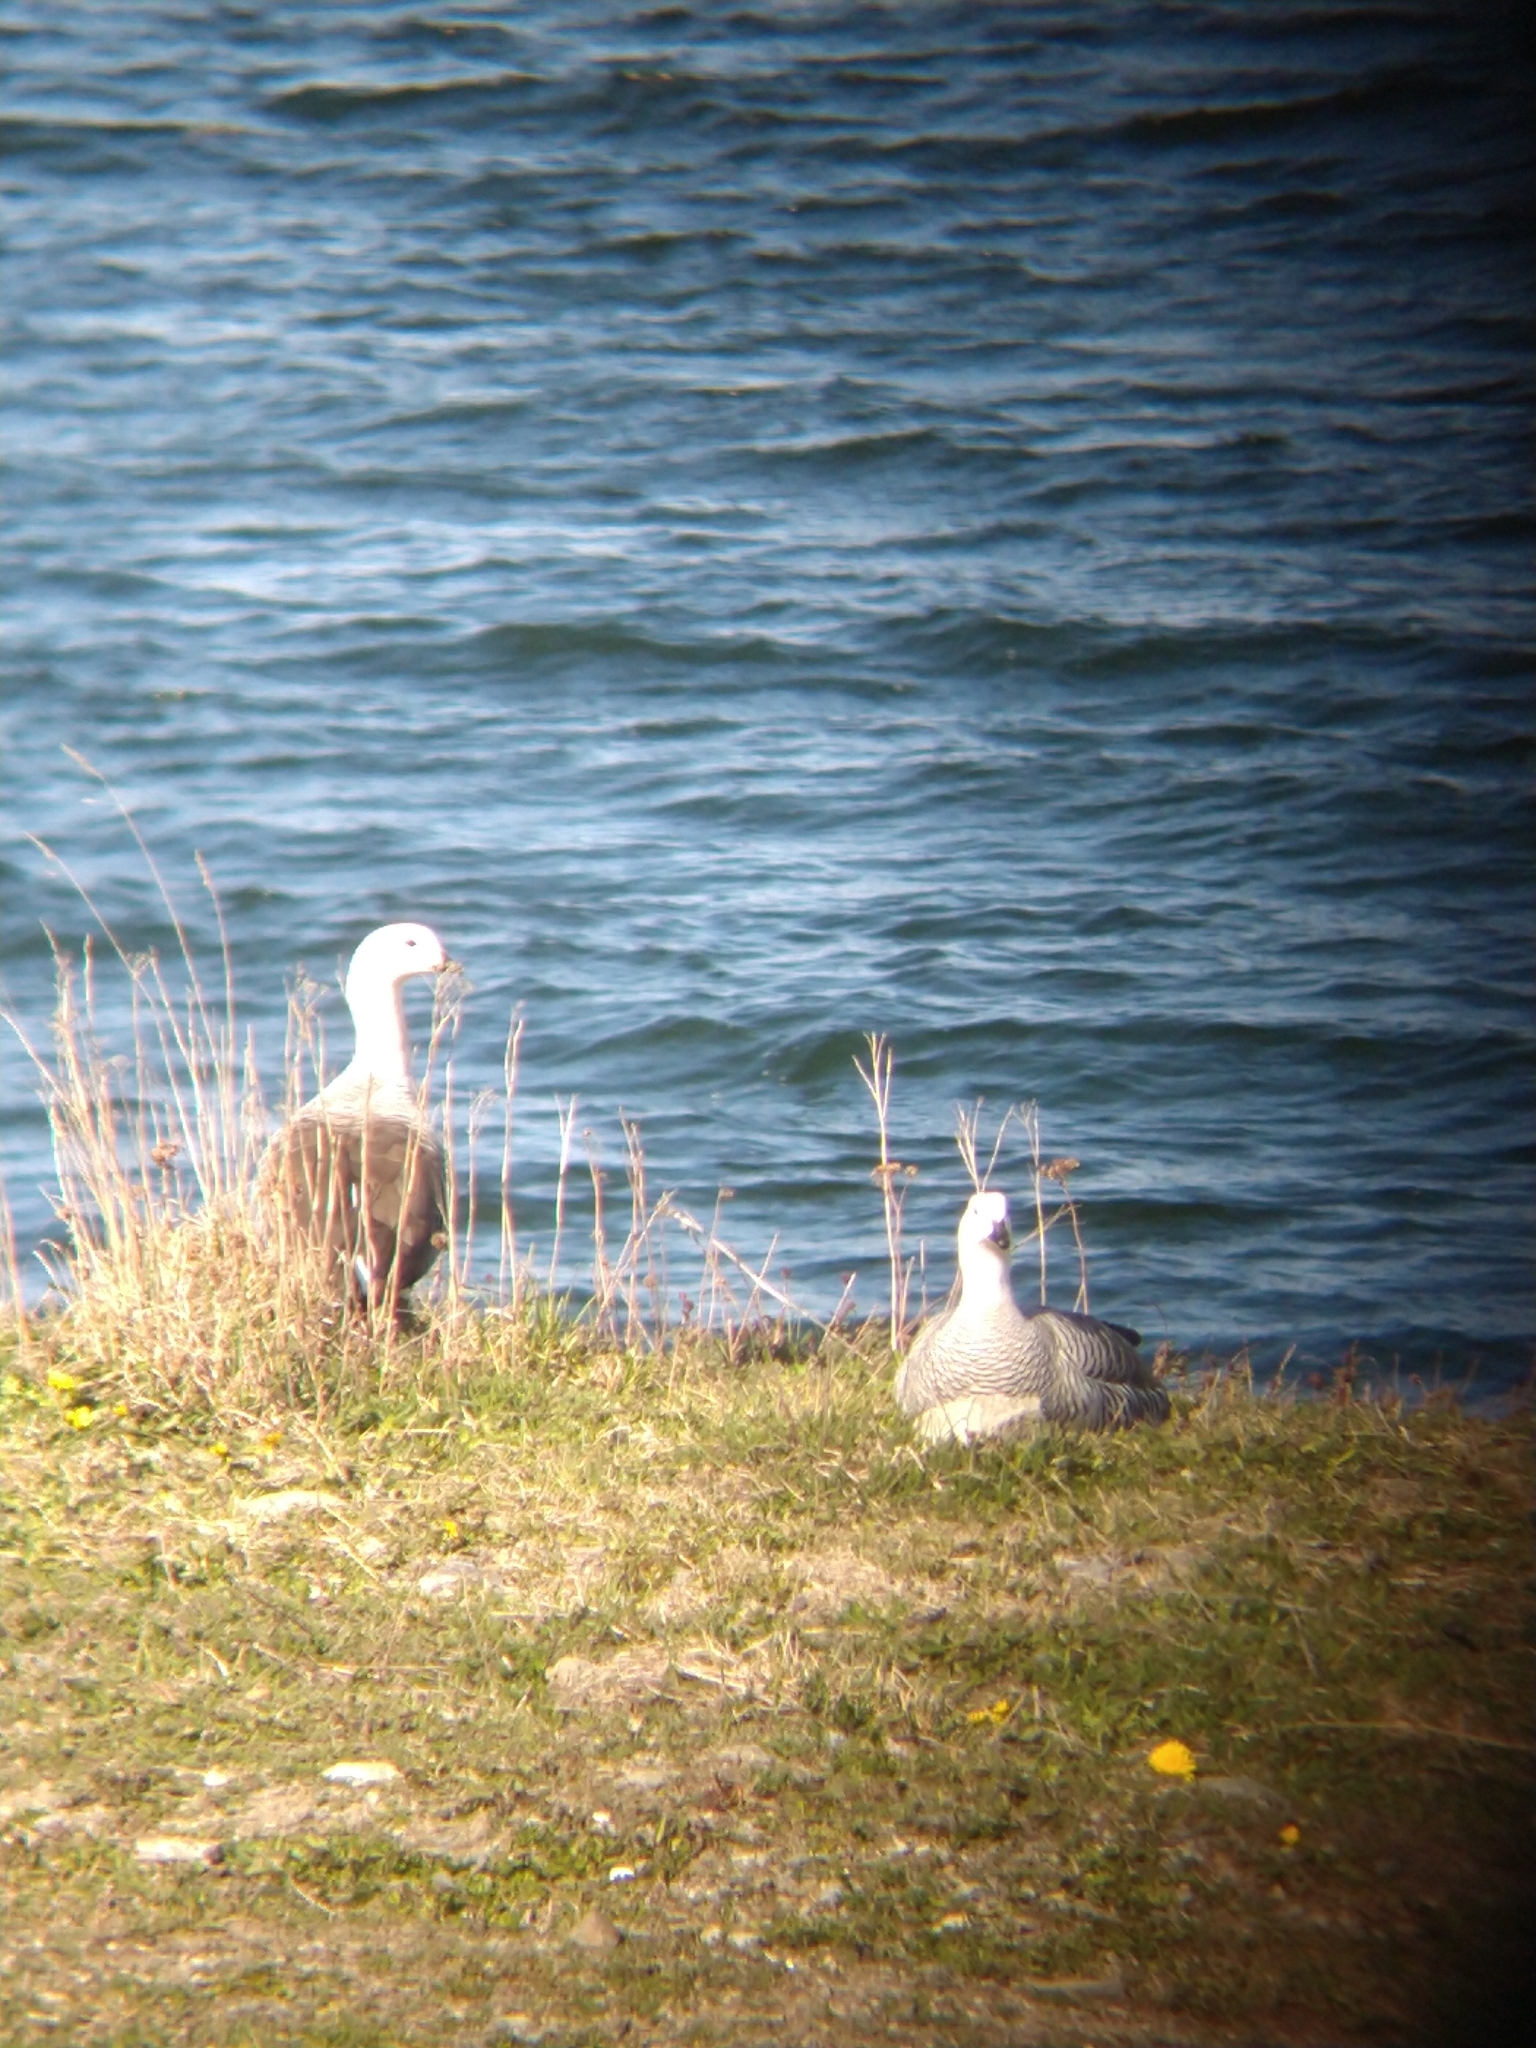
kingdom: Animalia
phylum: Chordata
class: Aves
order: Anseriformes
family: Anatidae
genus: Chloephaga
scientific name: Chloephaga picta
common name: Upland goose
